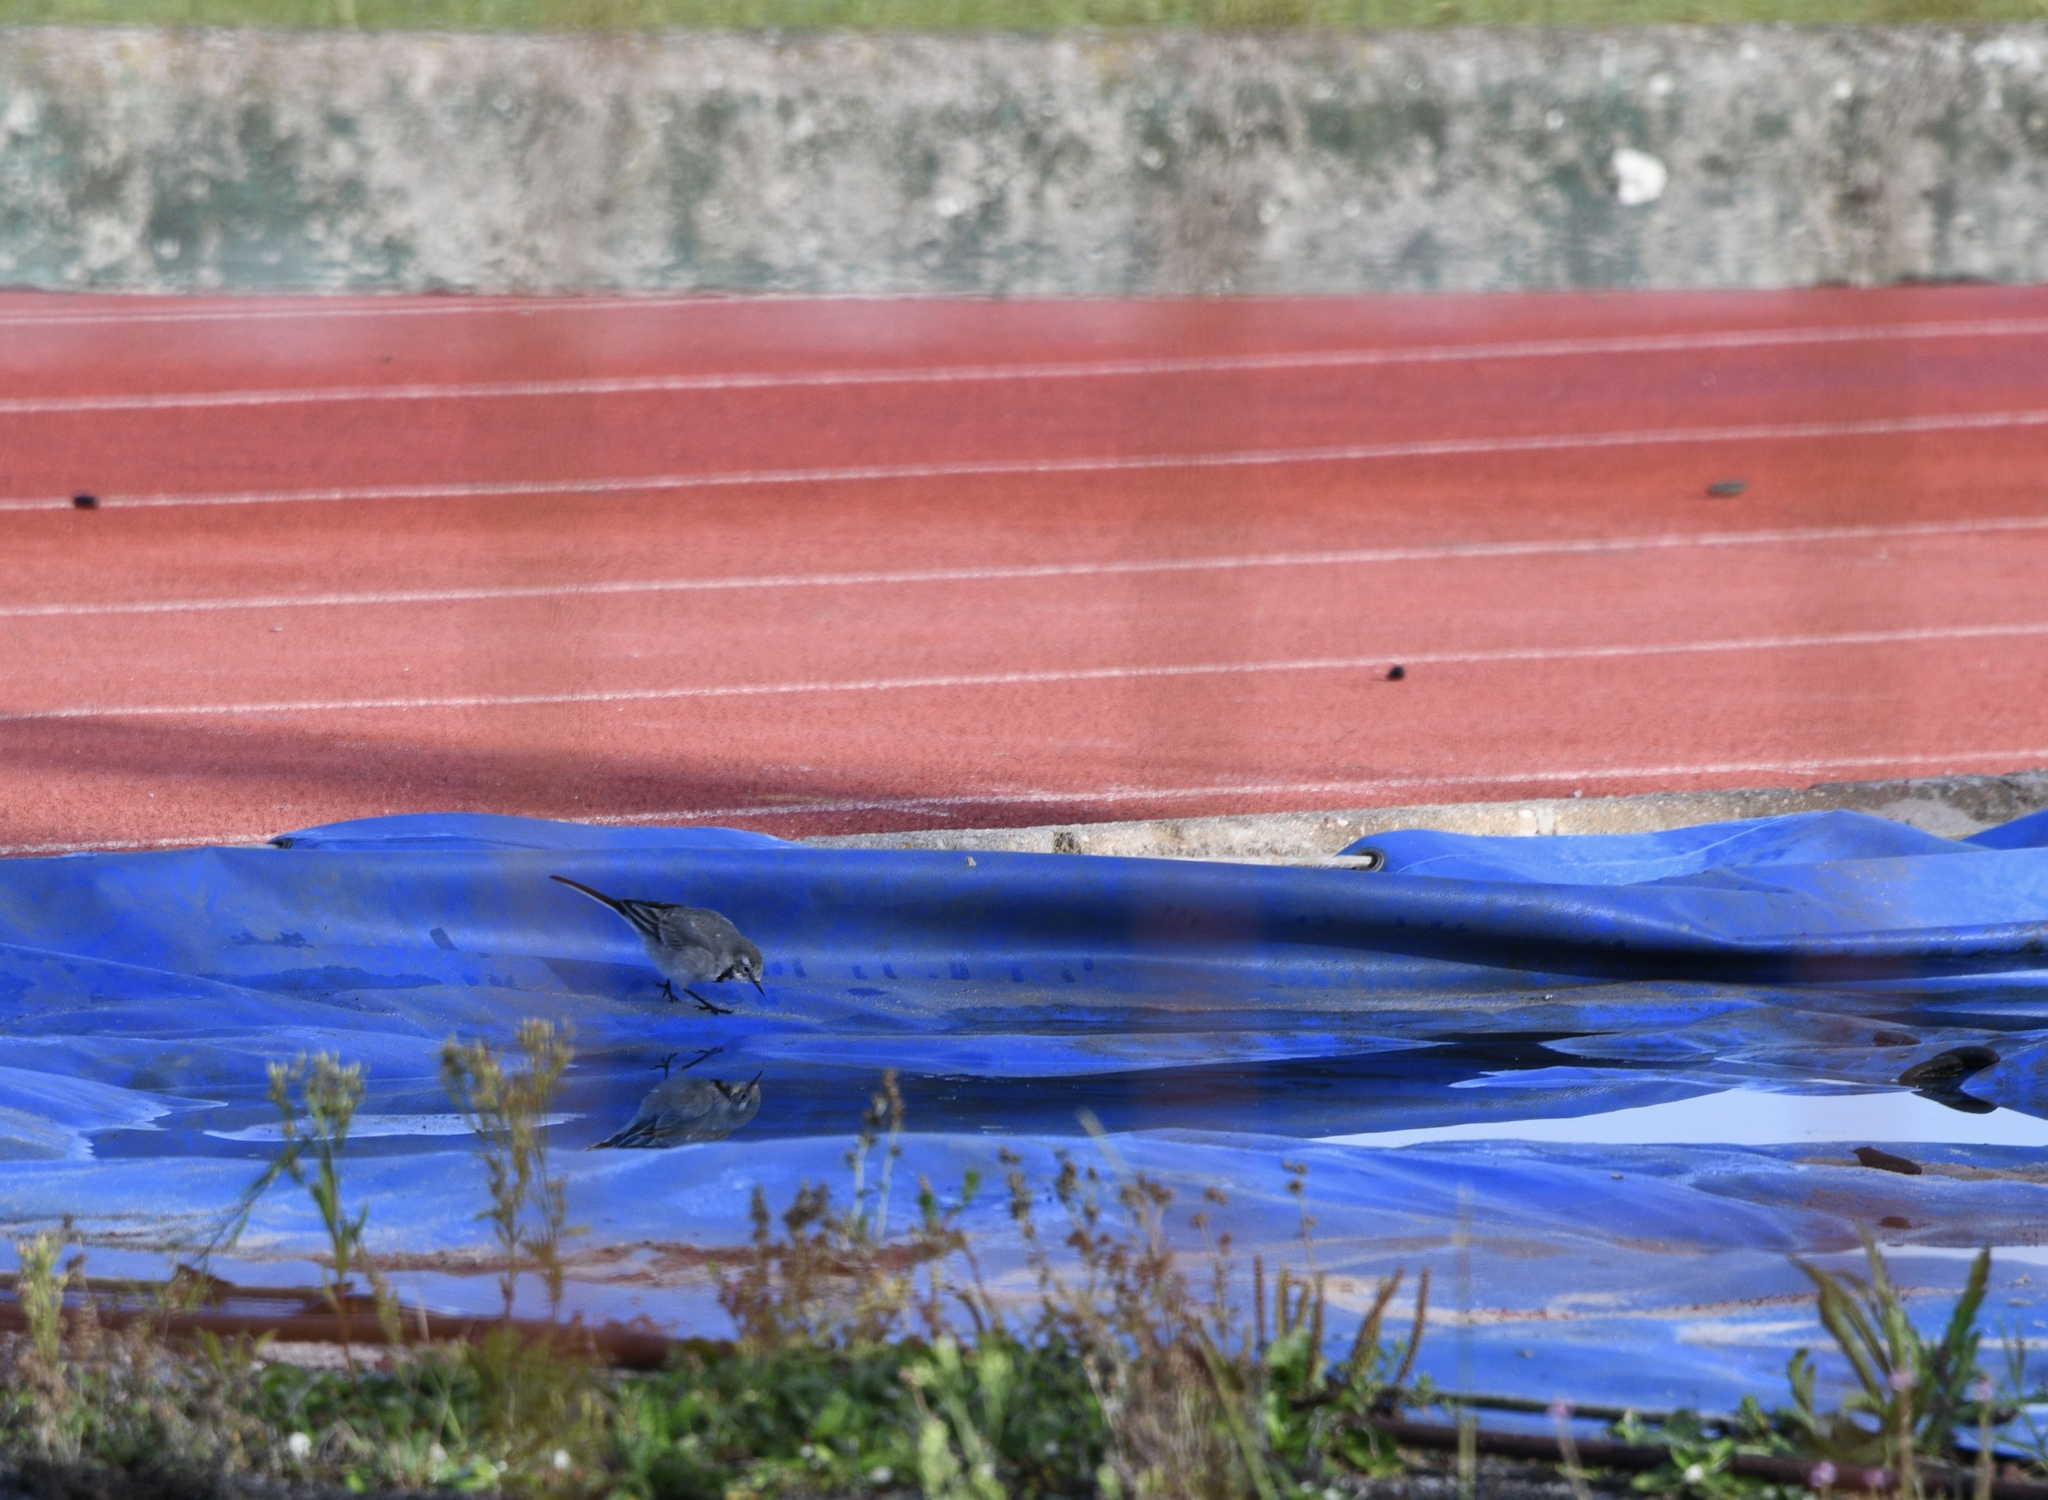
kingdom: Animalia
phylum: Chordata
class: Aves
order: Passeriformes
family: Motacillidae
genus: Motacilla
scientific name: Motacilla alba
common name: White wagtail
